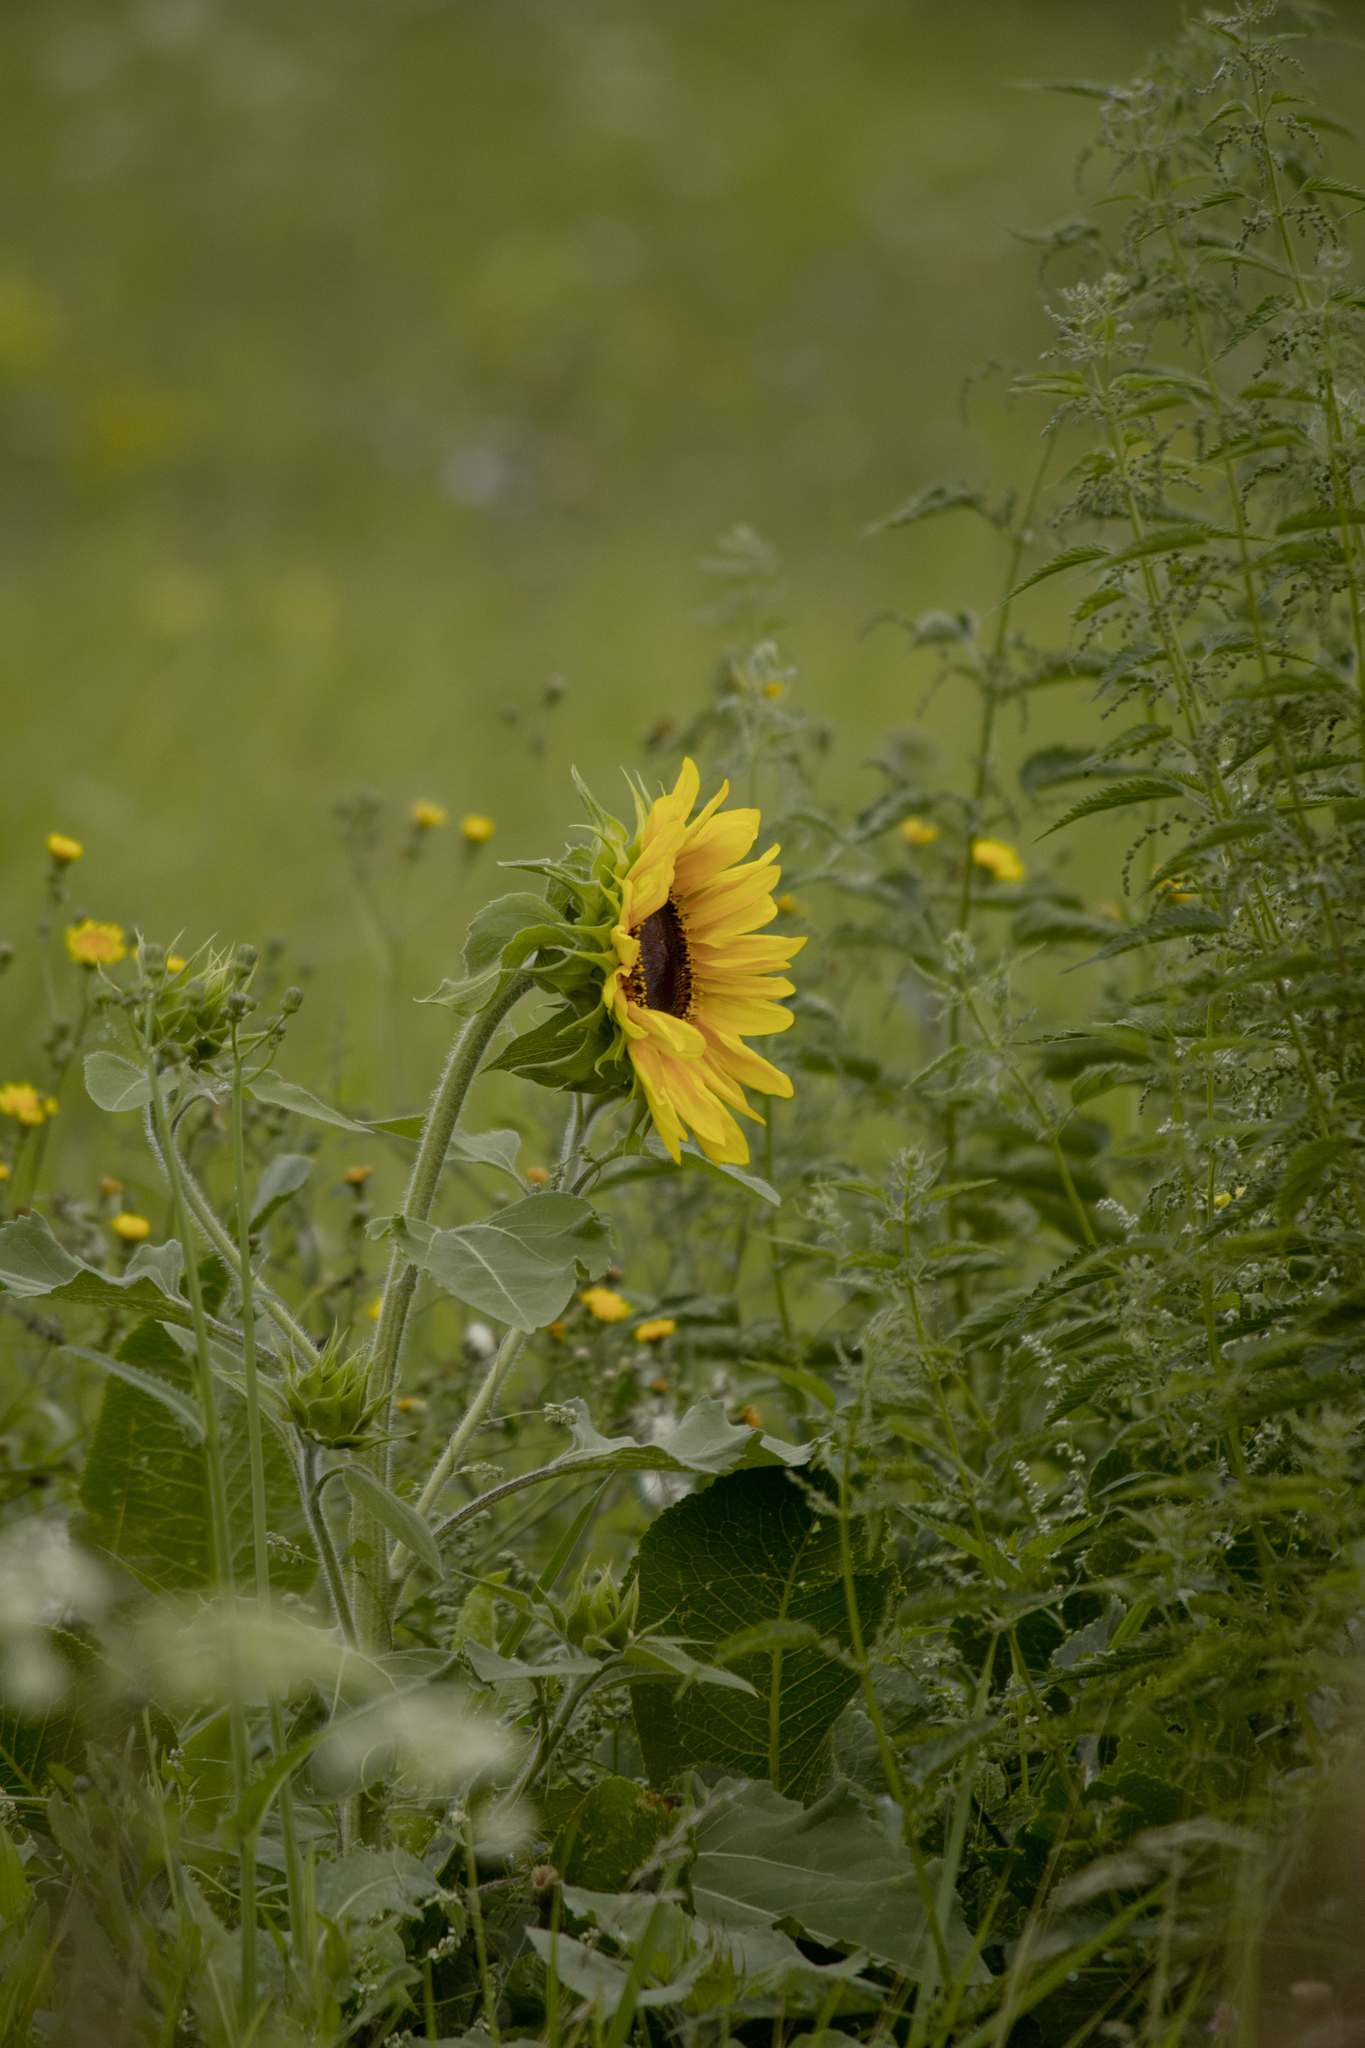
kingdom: Plantae
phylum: Tracheophyta
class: Magnoliopsida
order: Asterales
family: Asteraceae
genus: Helianthus
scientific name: Helianthus annuus
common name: Sunflower
